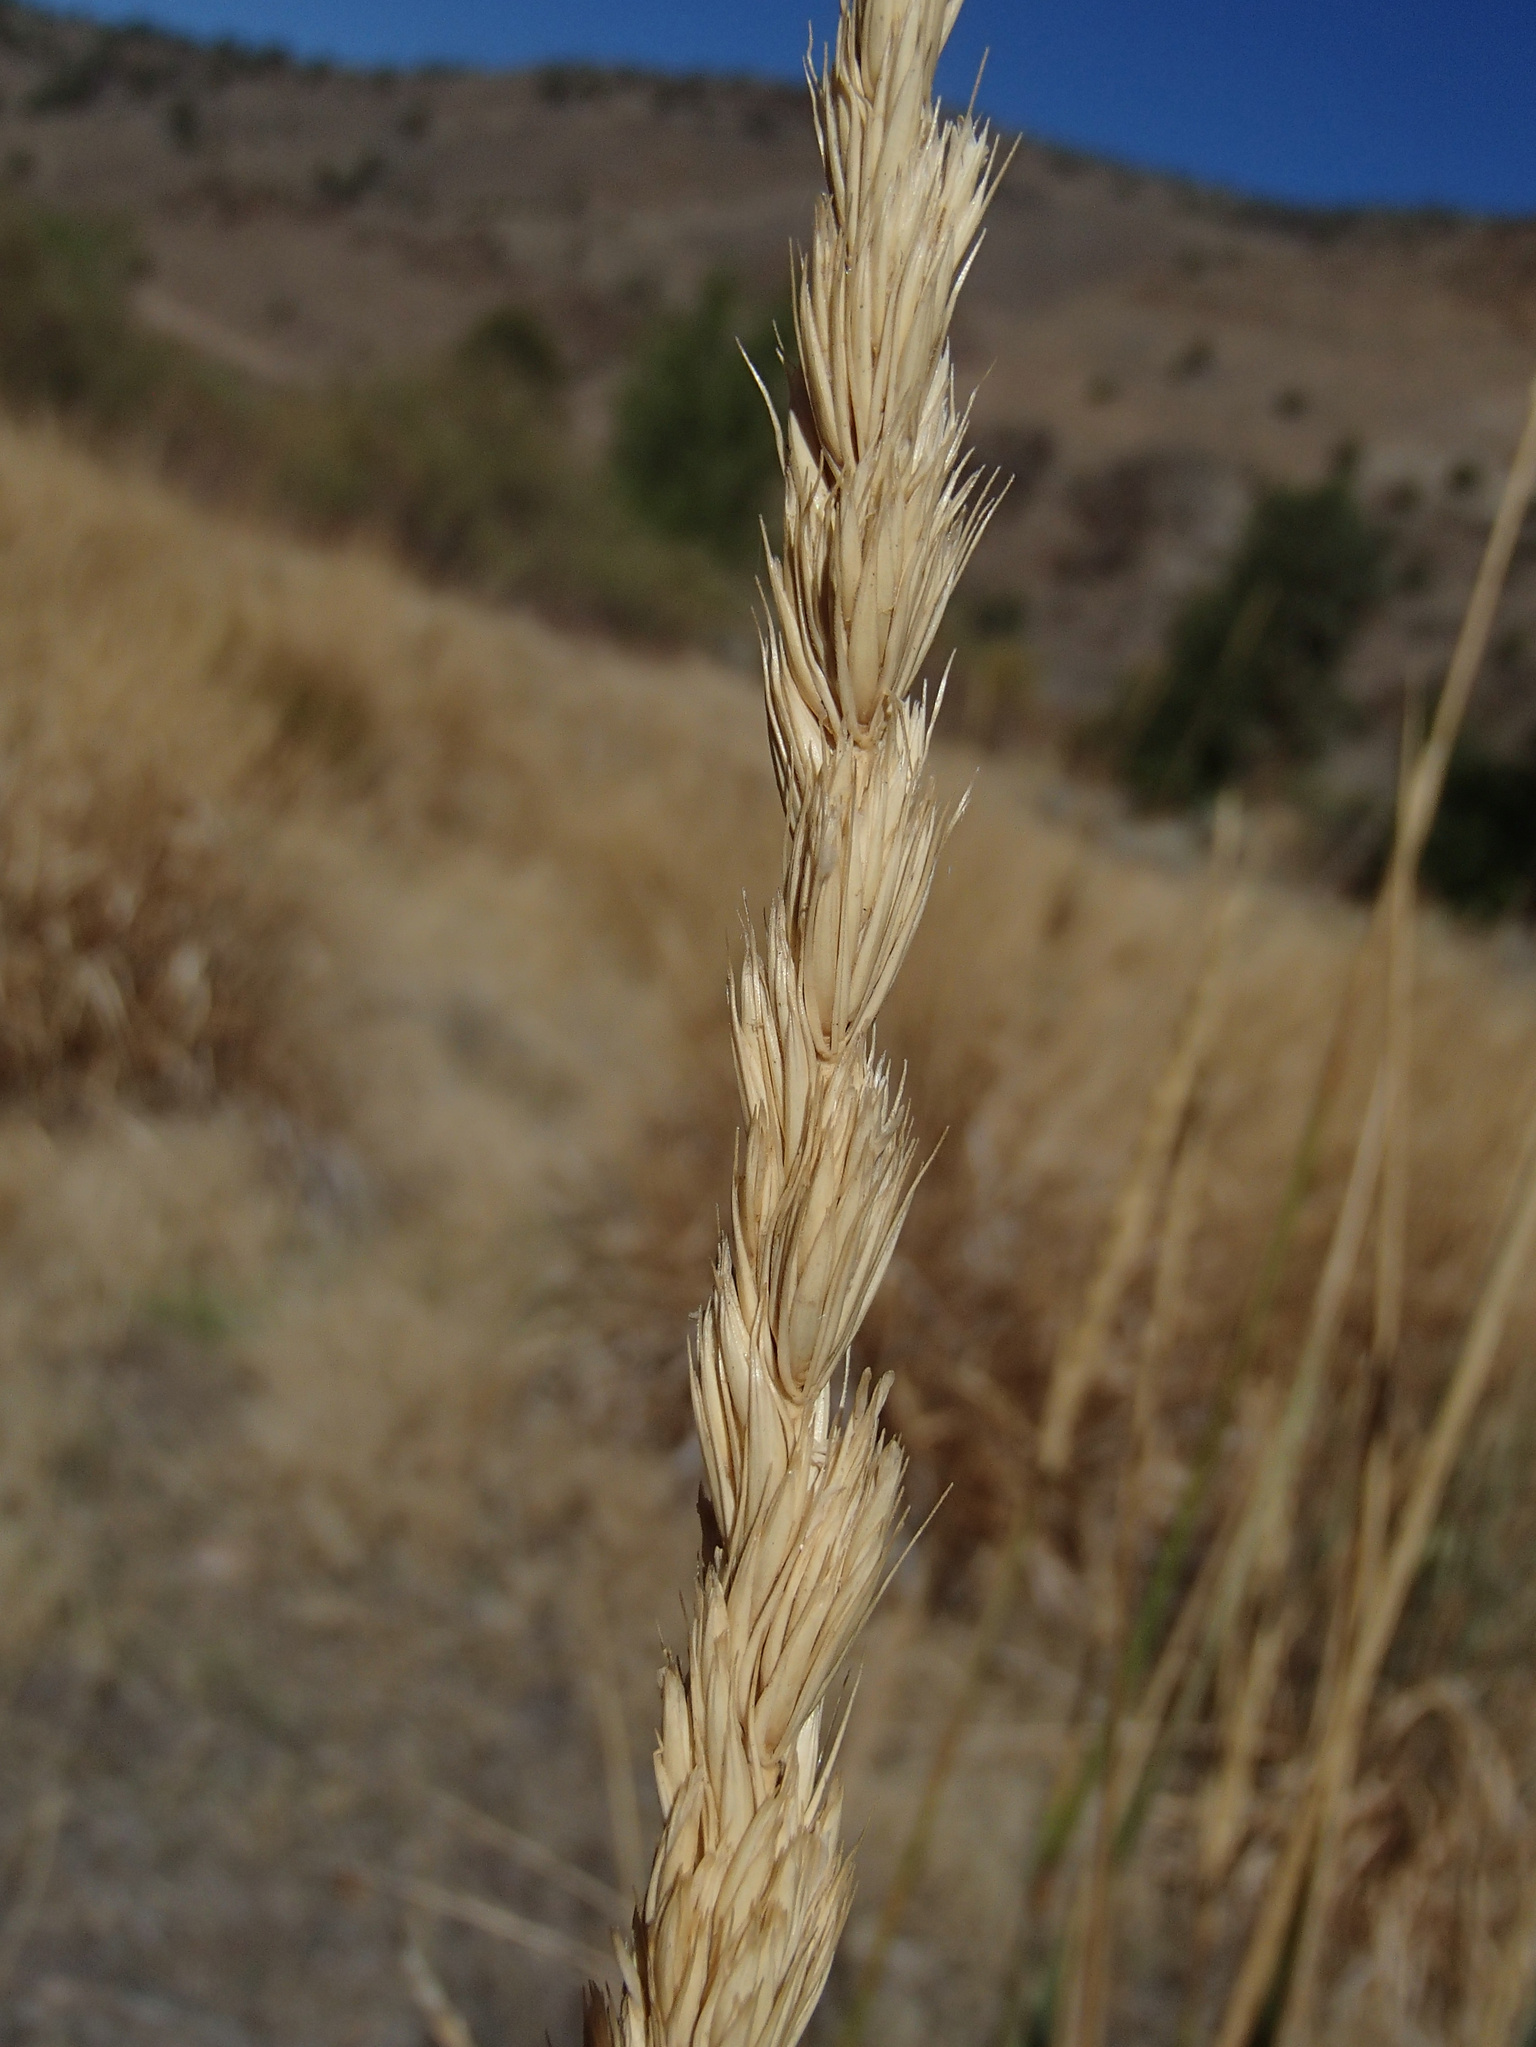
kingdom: Plantae
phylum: Tracheophyta
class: Liliopsida
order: Poales
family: Poaceae
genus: Leymus
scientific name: Leymus cinereus
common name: Basin wild rye
